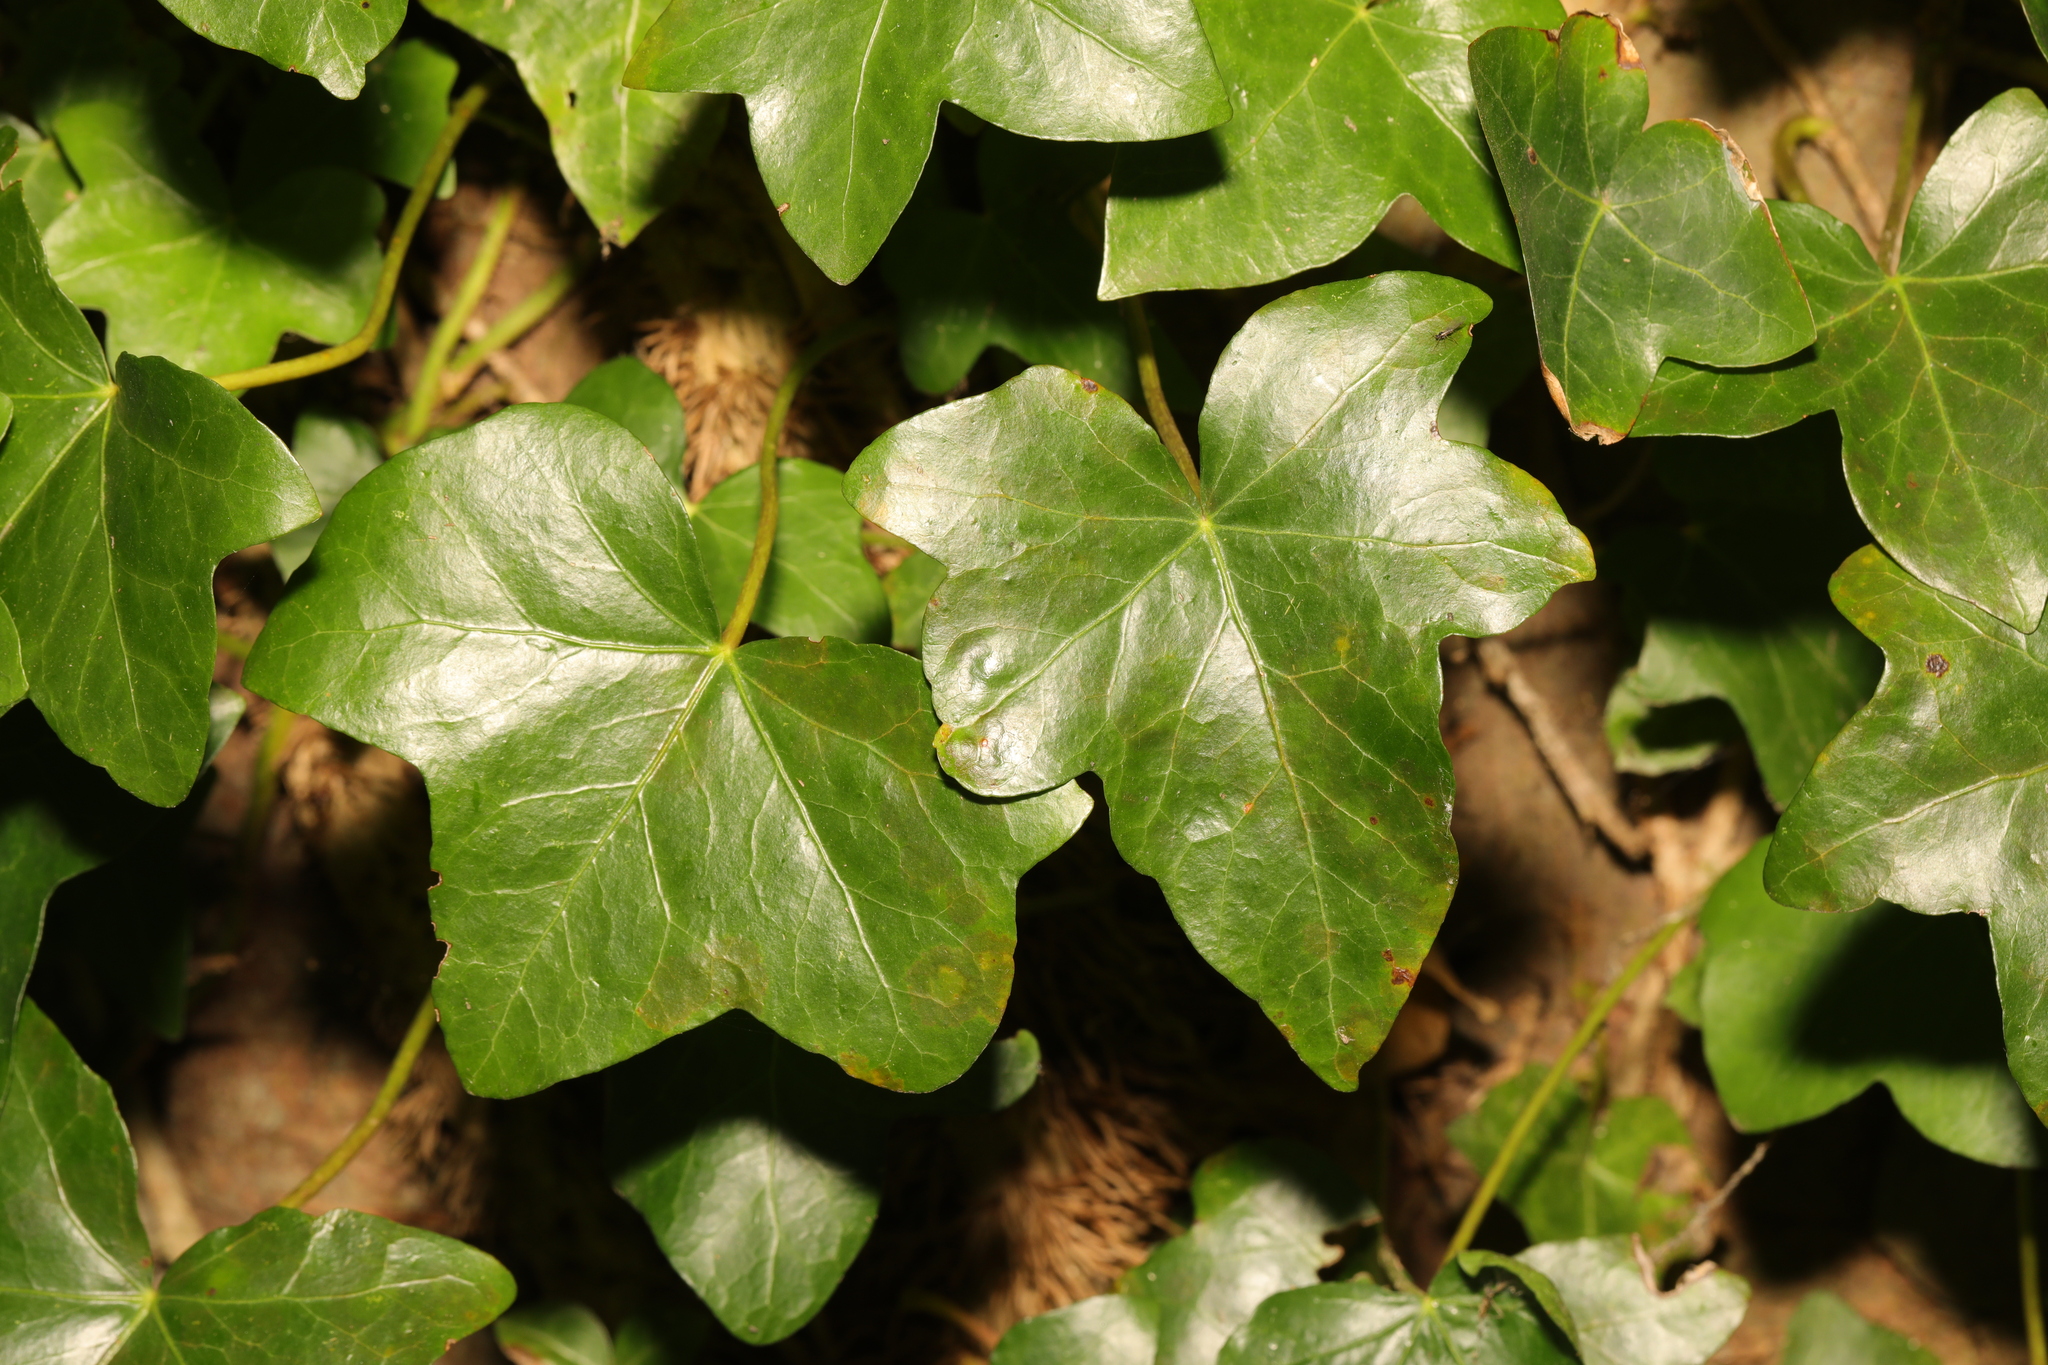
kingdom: Plantae
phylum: Tracheophyta
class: Magnoliopsida
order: Apiales
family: Araliaceae
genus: Hedera
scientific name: Hedera helix
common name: Ivy
